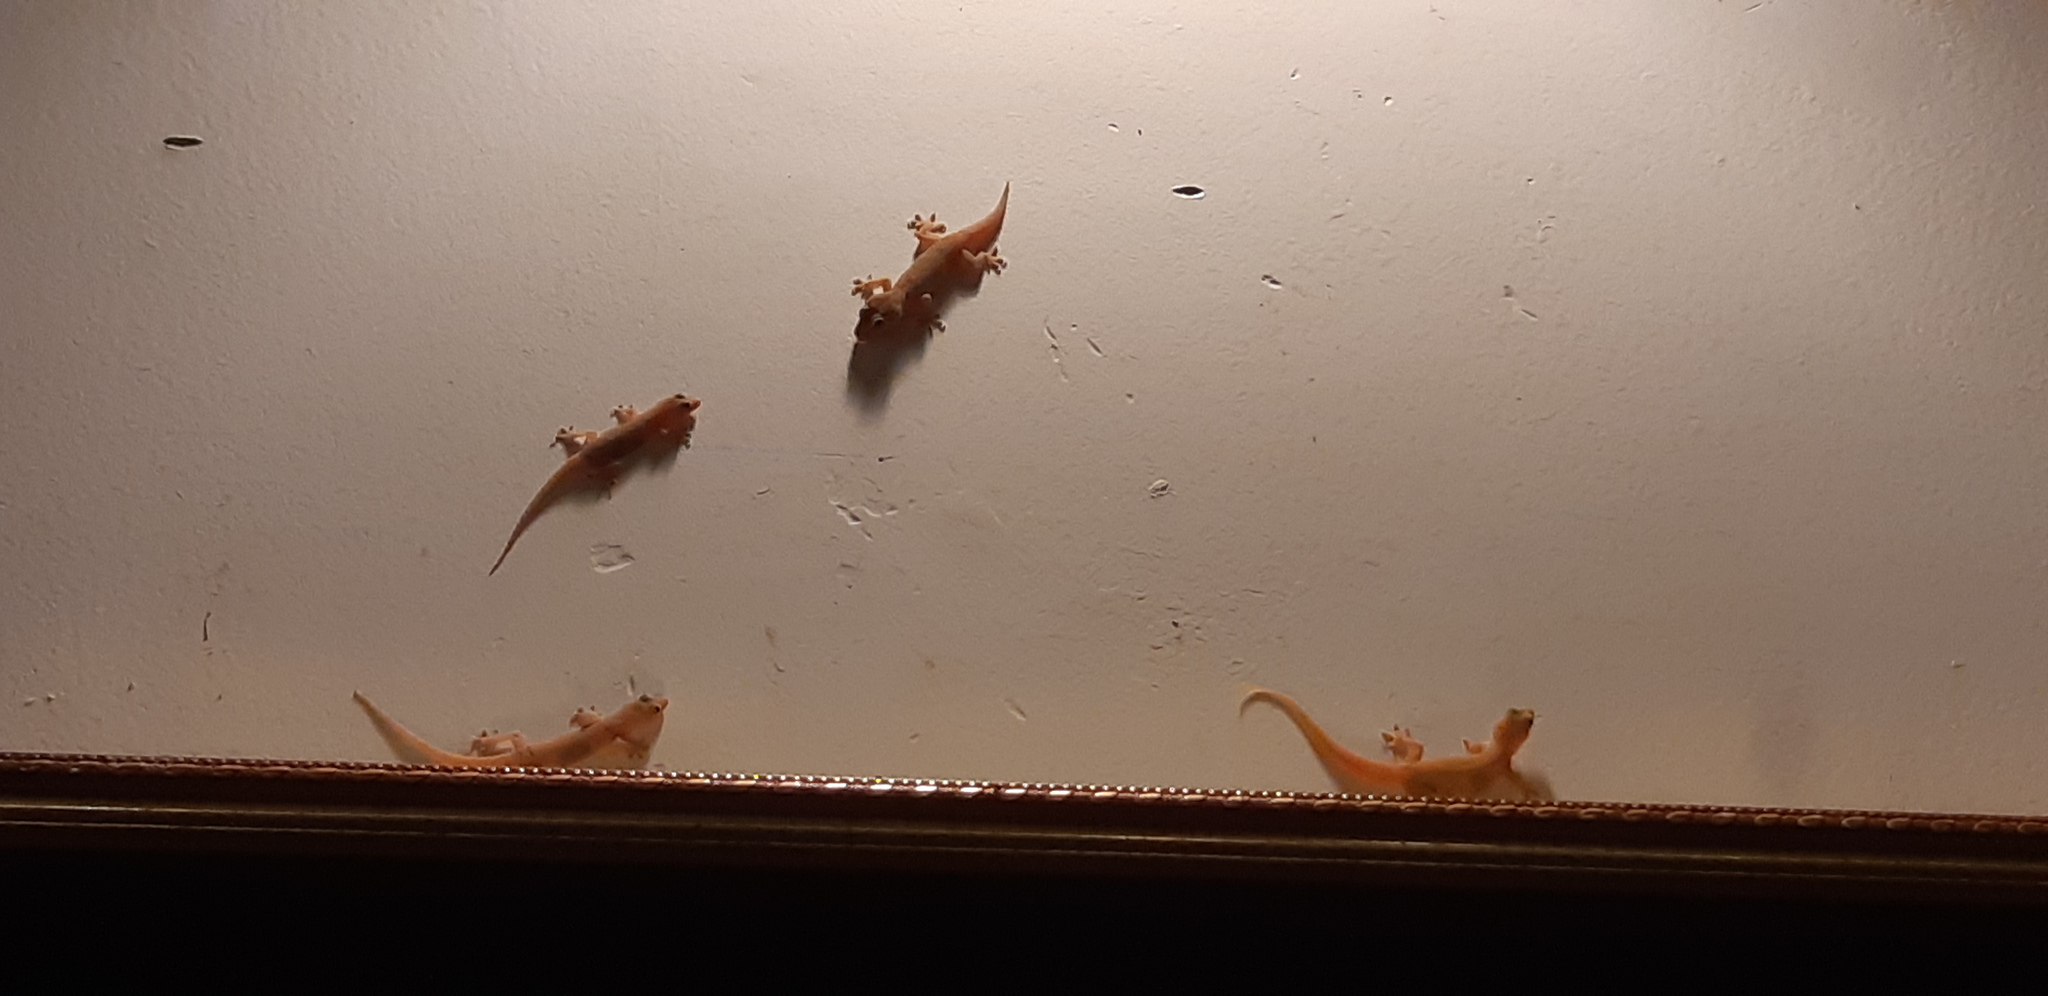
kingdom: Animalia
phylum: Chordata
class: Squamata
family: Gekkonidae
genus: Gehyra
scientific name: Gehyra mutilata
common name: Stump-toed gecko
